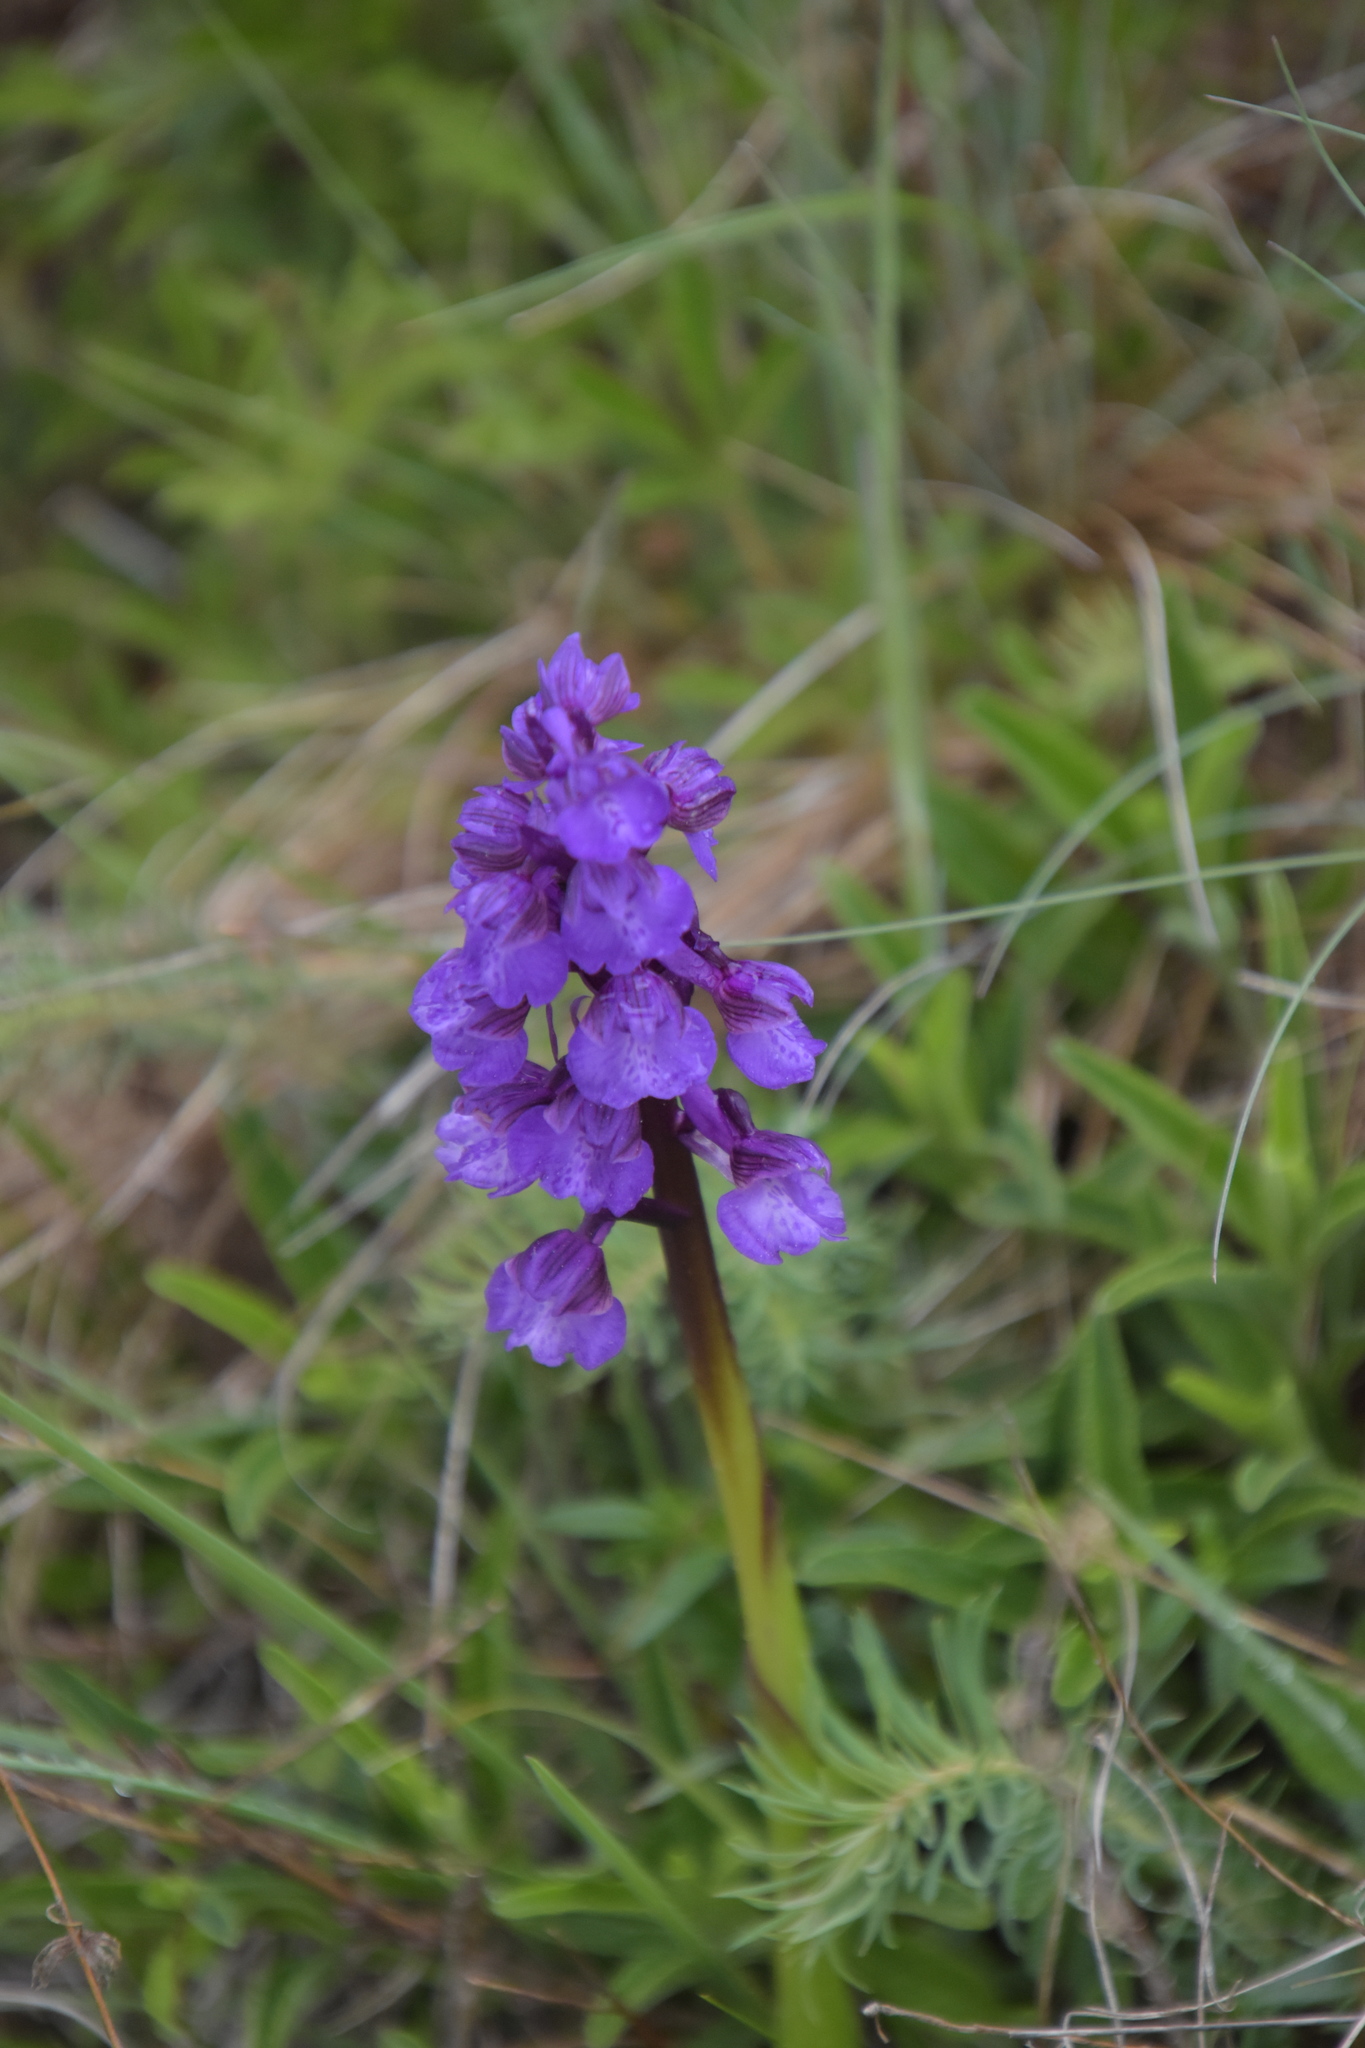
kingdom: Plantae
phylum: Tracheophyta
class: Liliopsida
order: Asparagales
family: Orchidaceae
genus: Anacamptis
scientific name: Anacamptis morio
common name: Green-winged orchid
